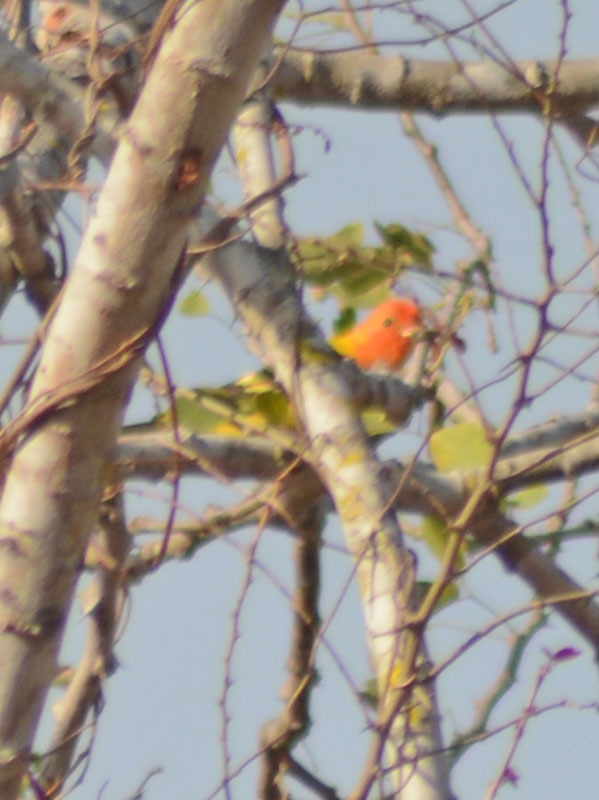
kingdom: Animalia
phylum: Chordata
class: Aves
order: Passeriformes
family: Cardinalidae
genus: Piranga
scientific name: Piranga ludoviciana
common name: Western tanager
